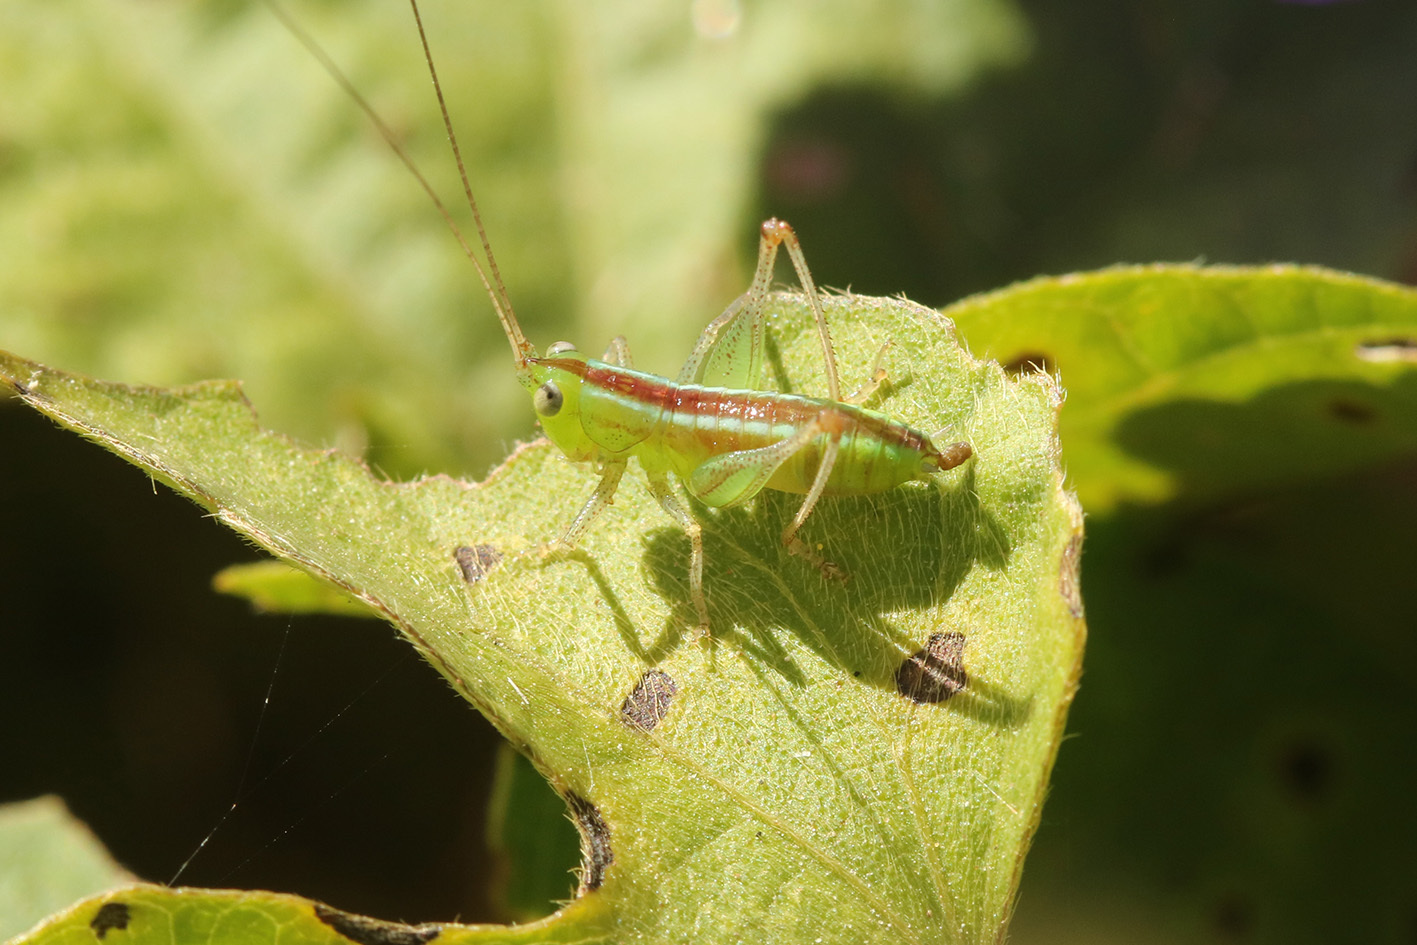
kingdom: Animalia
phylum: Arthropoda
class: Insecta
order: Orthoptera
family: Tettigoniidae
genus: Conocephalus
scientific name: Conocephalus ochrotelus
